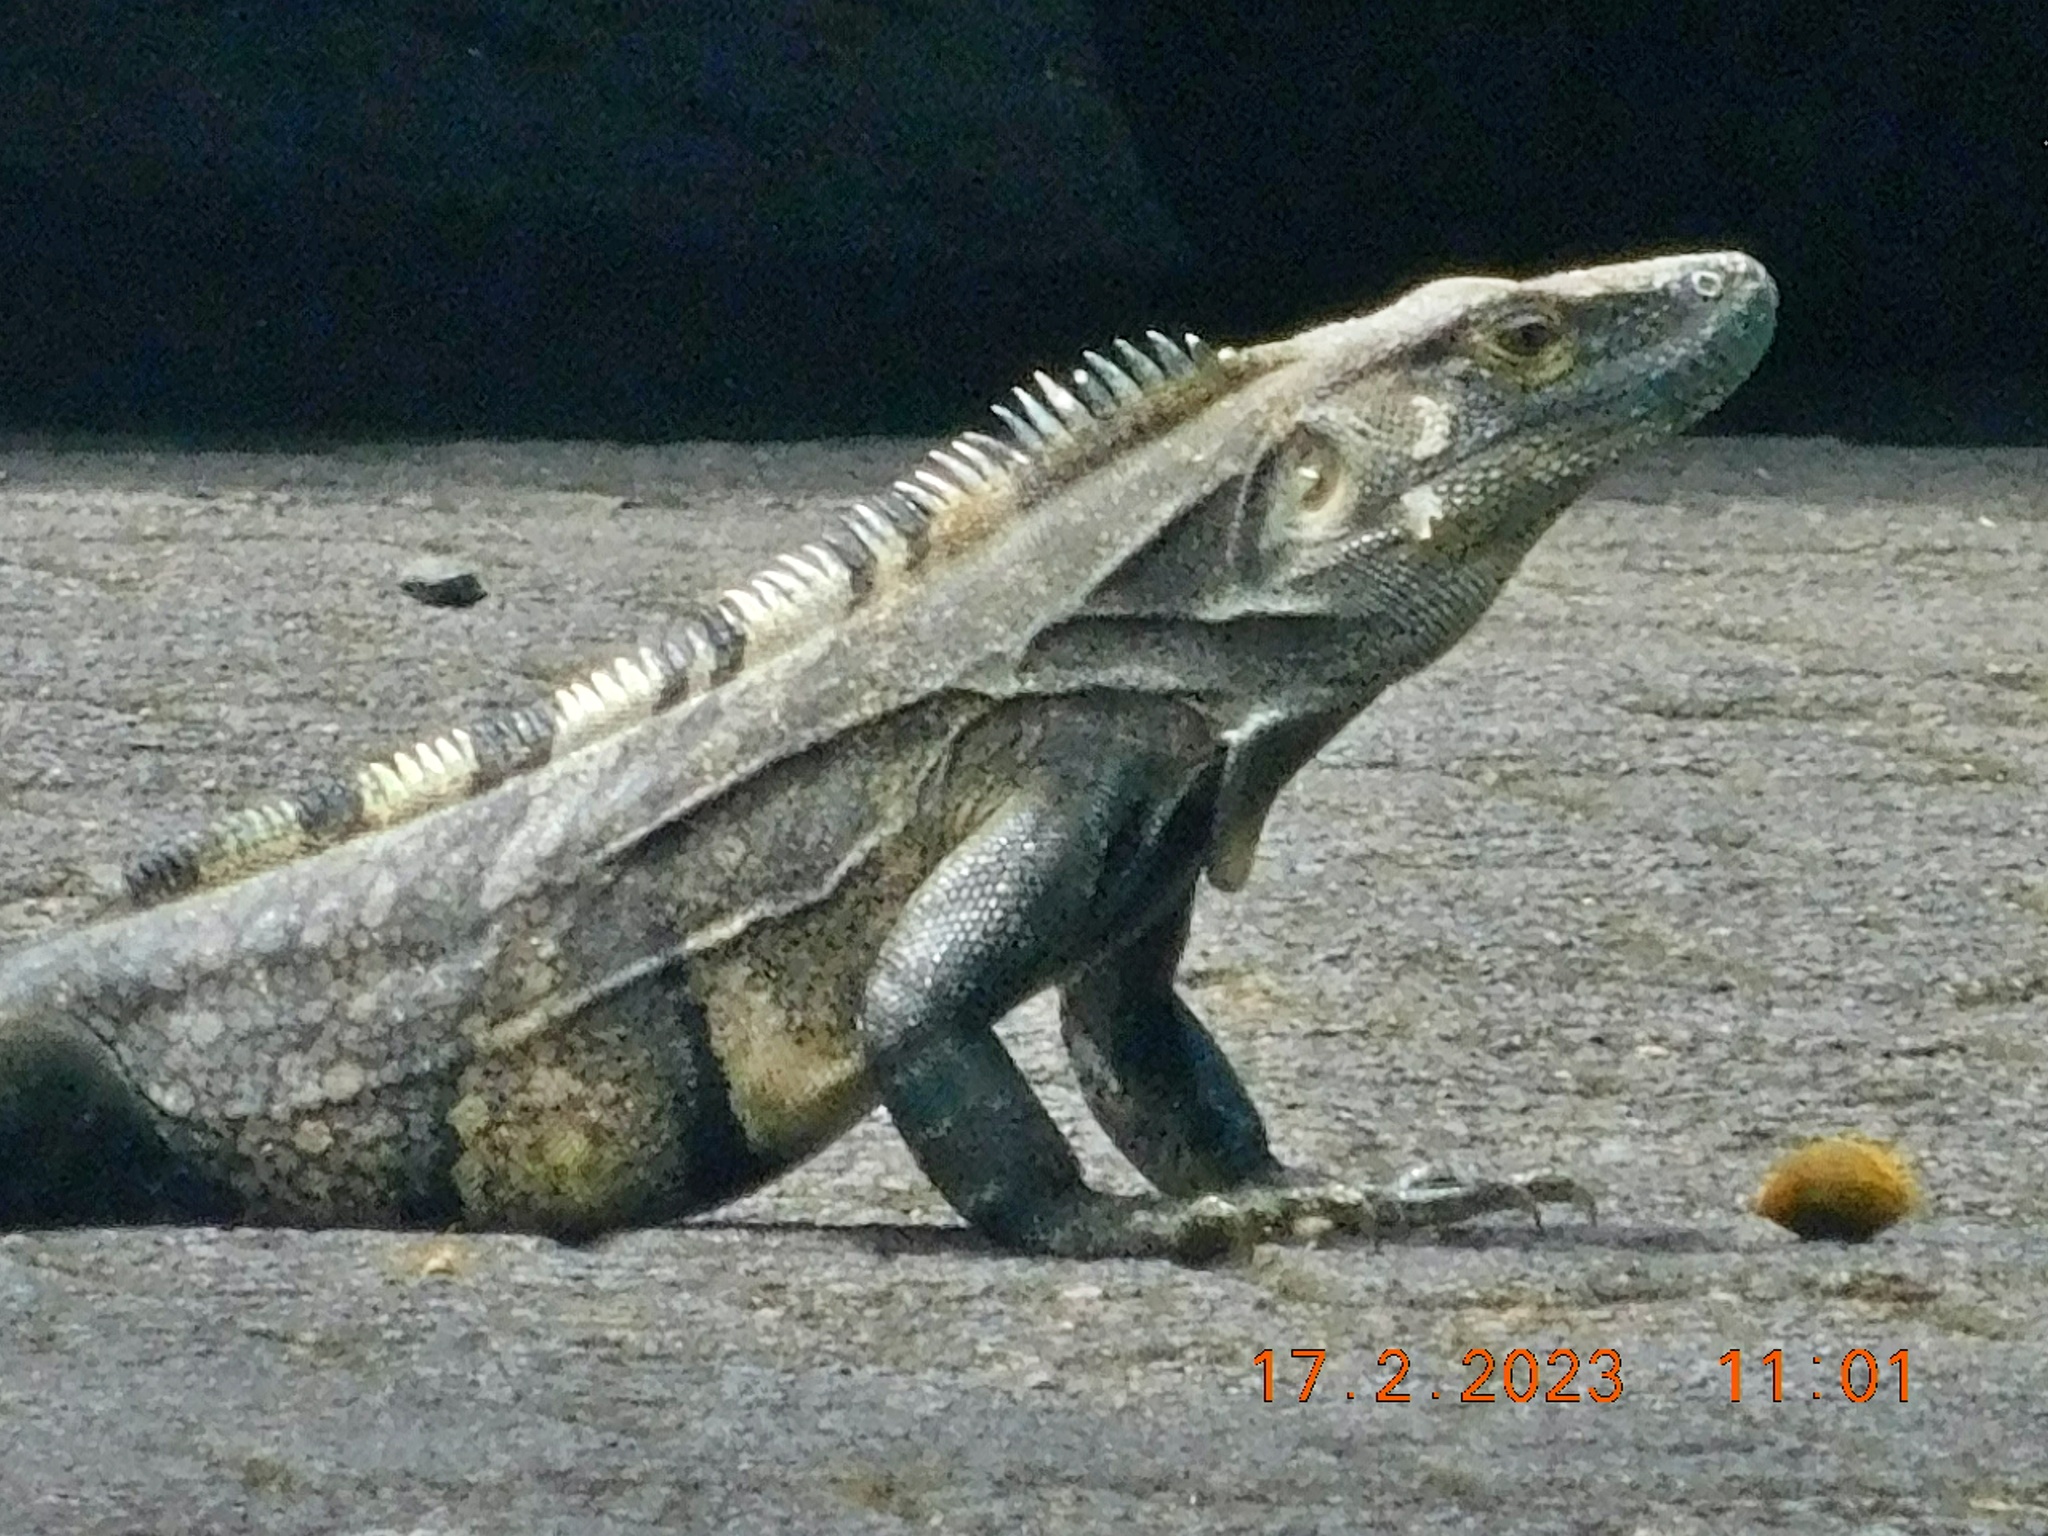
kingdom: Animalia
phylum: Chordata
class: Squamata
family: Iguanidae
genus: Ctenosaura
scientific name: Ctenosaura similis
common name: Black spiny-tailed iguana
